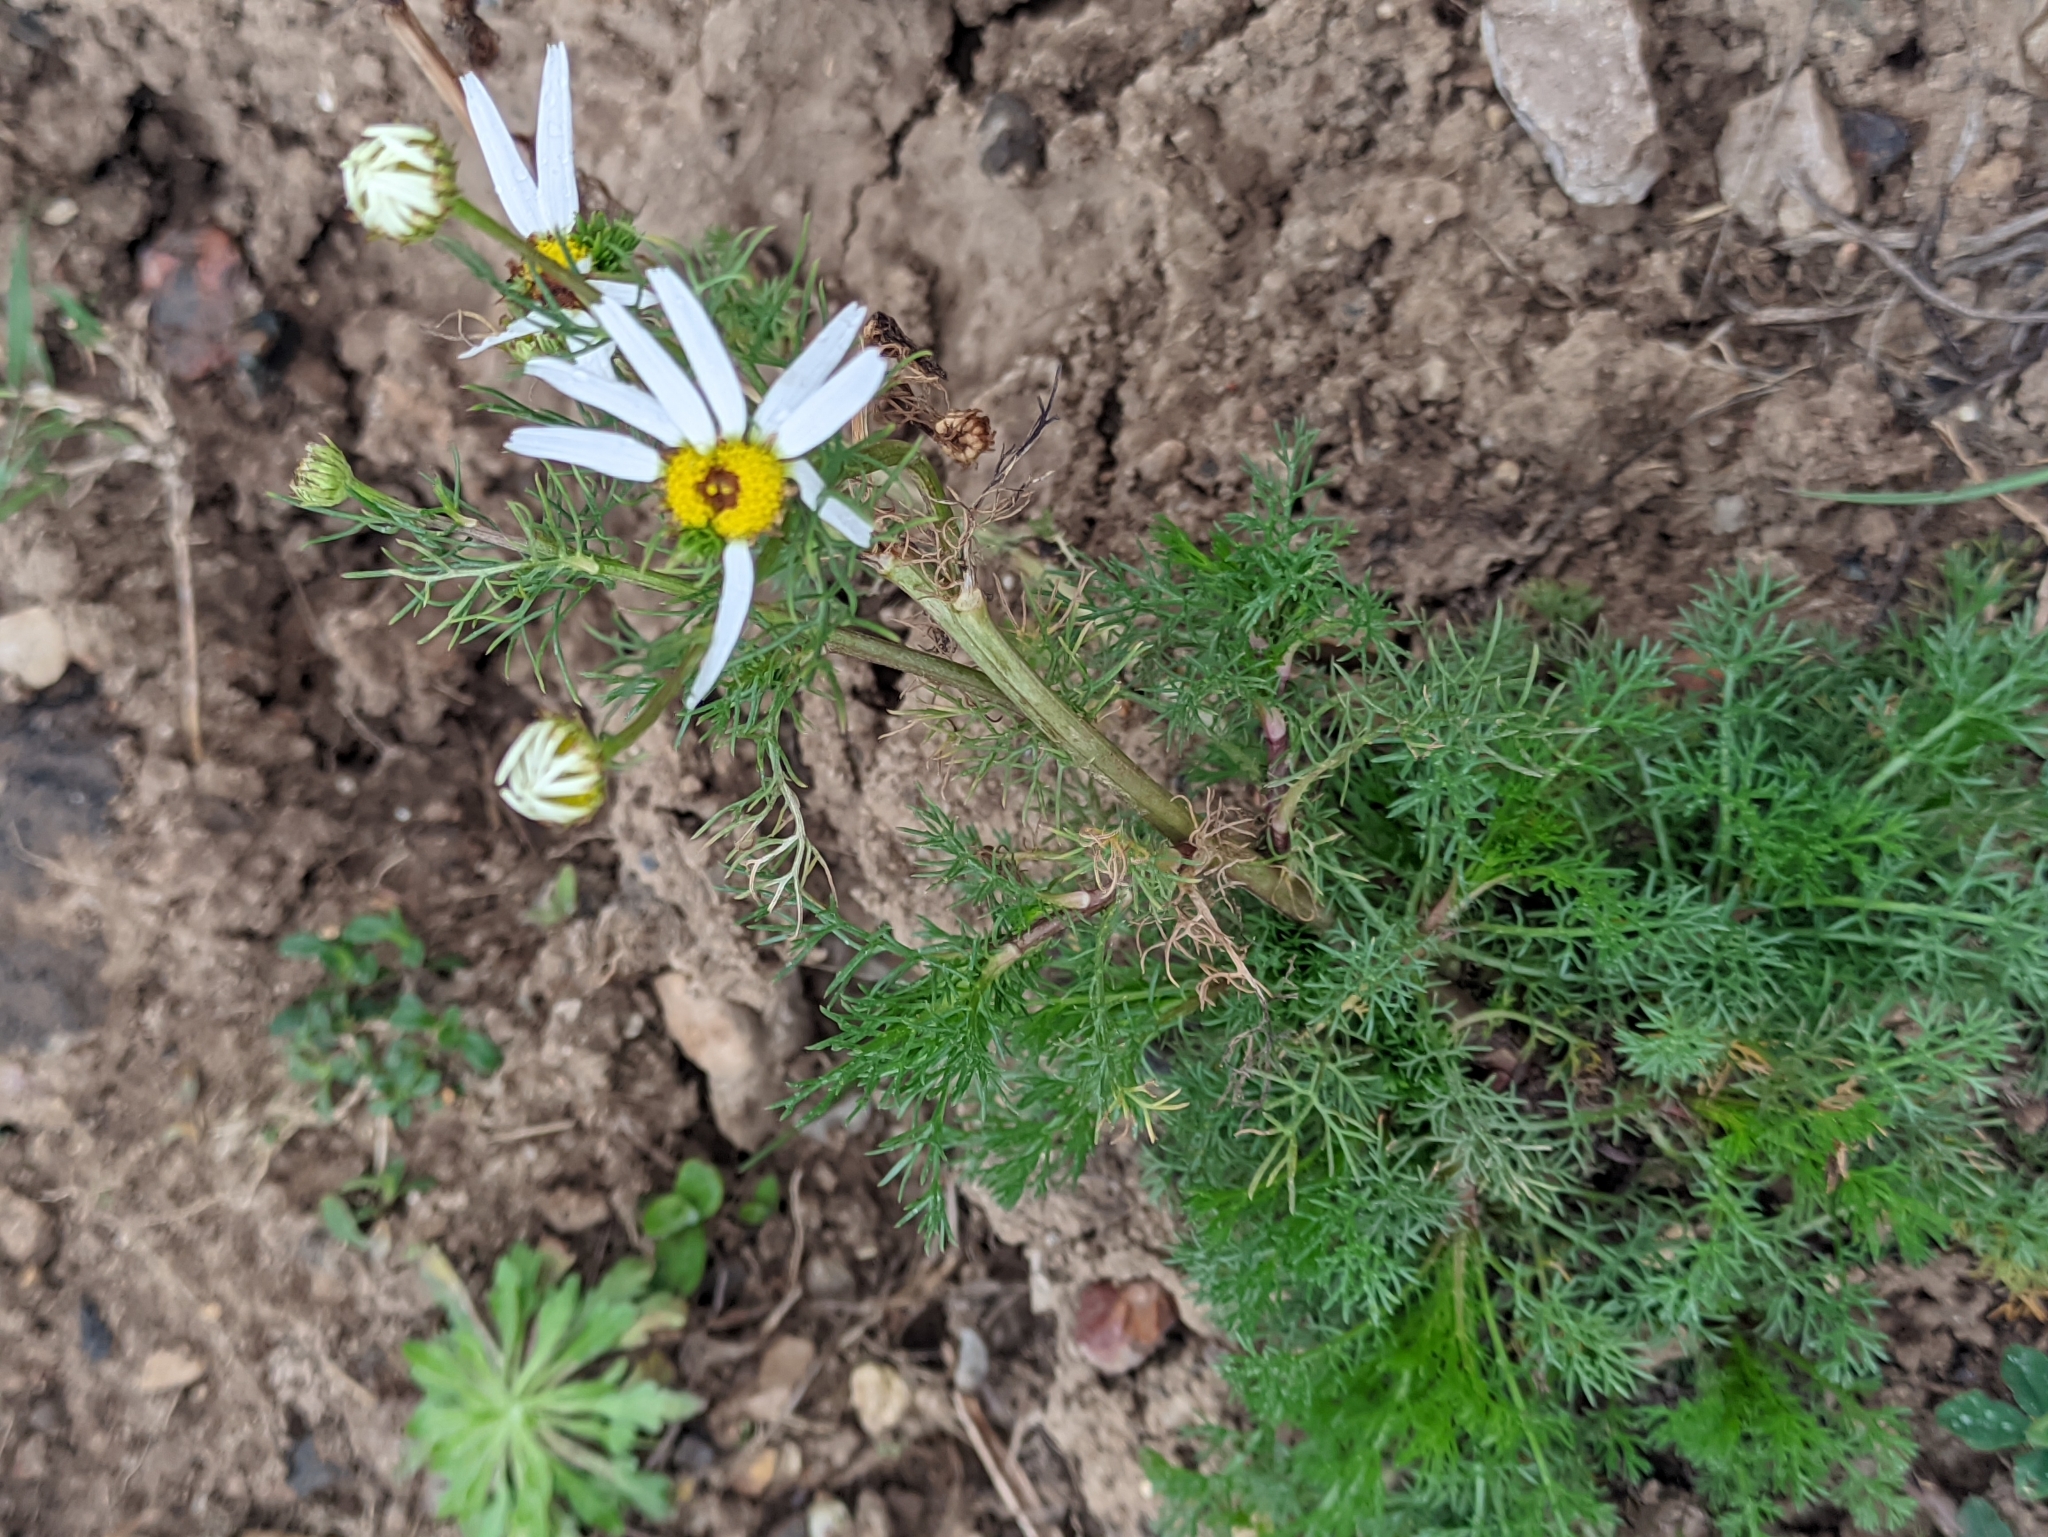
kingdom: Plantae
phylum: Tracheophyta
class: Magnoliopsida
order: Asterales
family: Asteraceae
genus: Tripleurospermum
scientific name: Tripleurospermum inodorum
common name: Scentless mayweed
